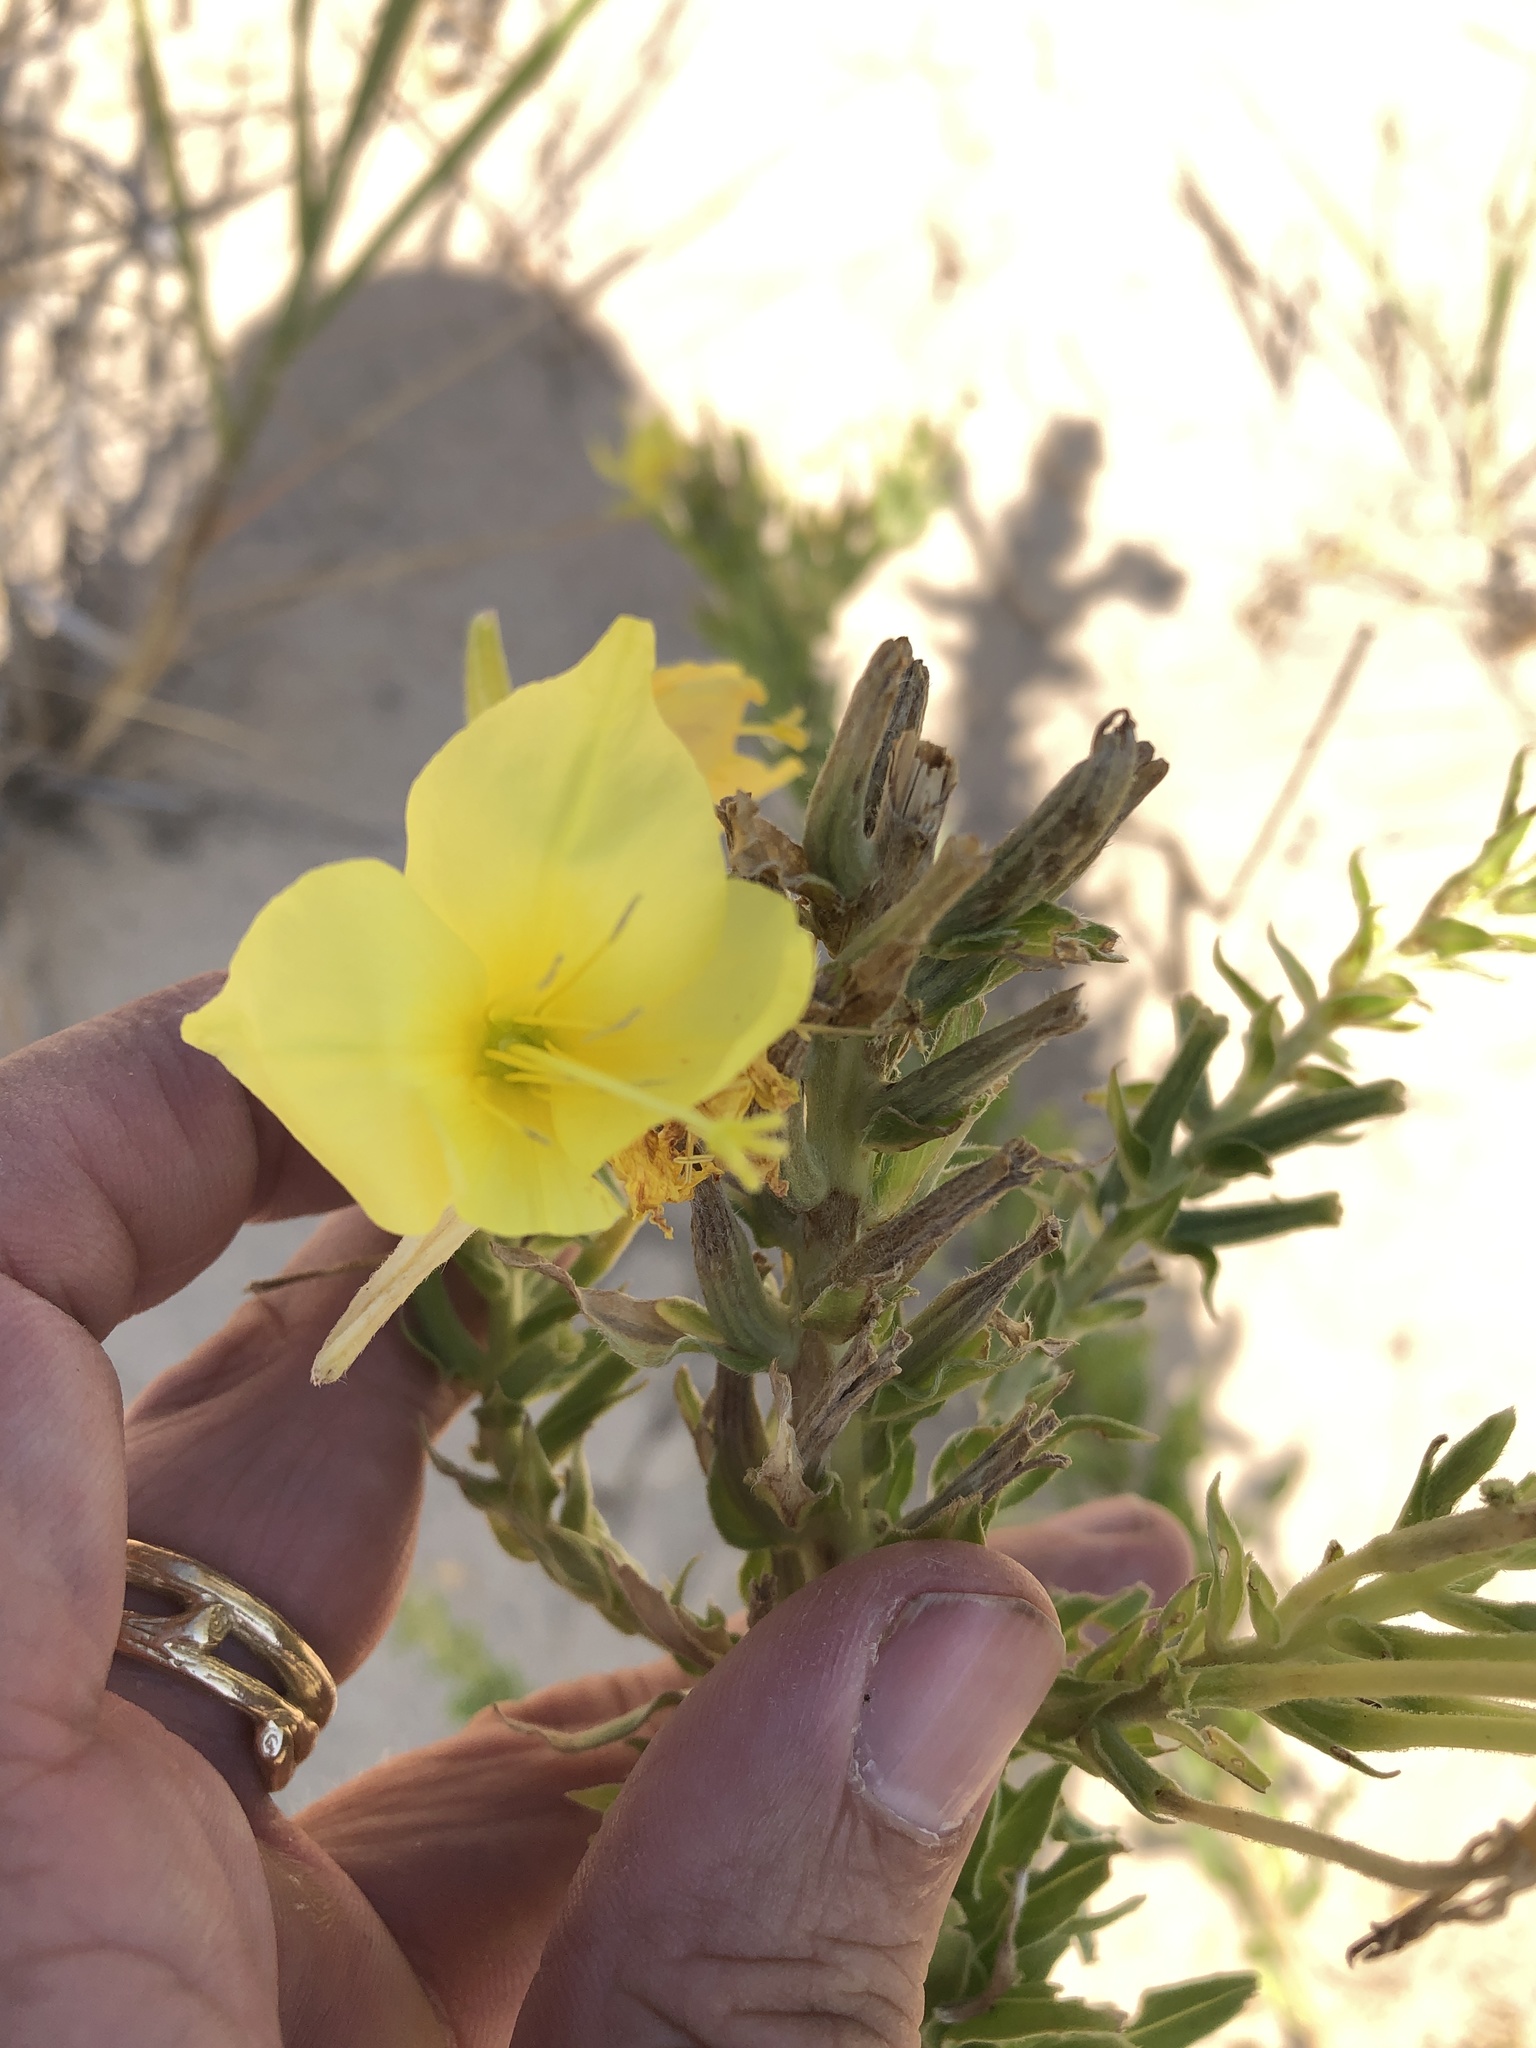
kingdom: Plantae
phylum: Tracheophyta
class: Magnoliopsida
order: Myrtales
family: Onagraceae
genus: Oenothera
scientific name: Oenothera rhombipetala
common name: Four-points evening-primrose
